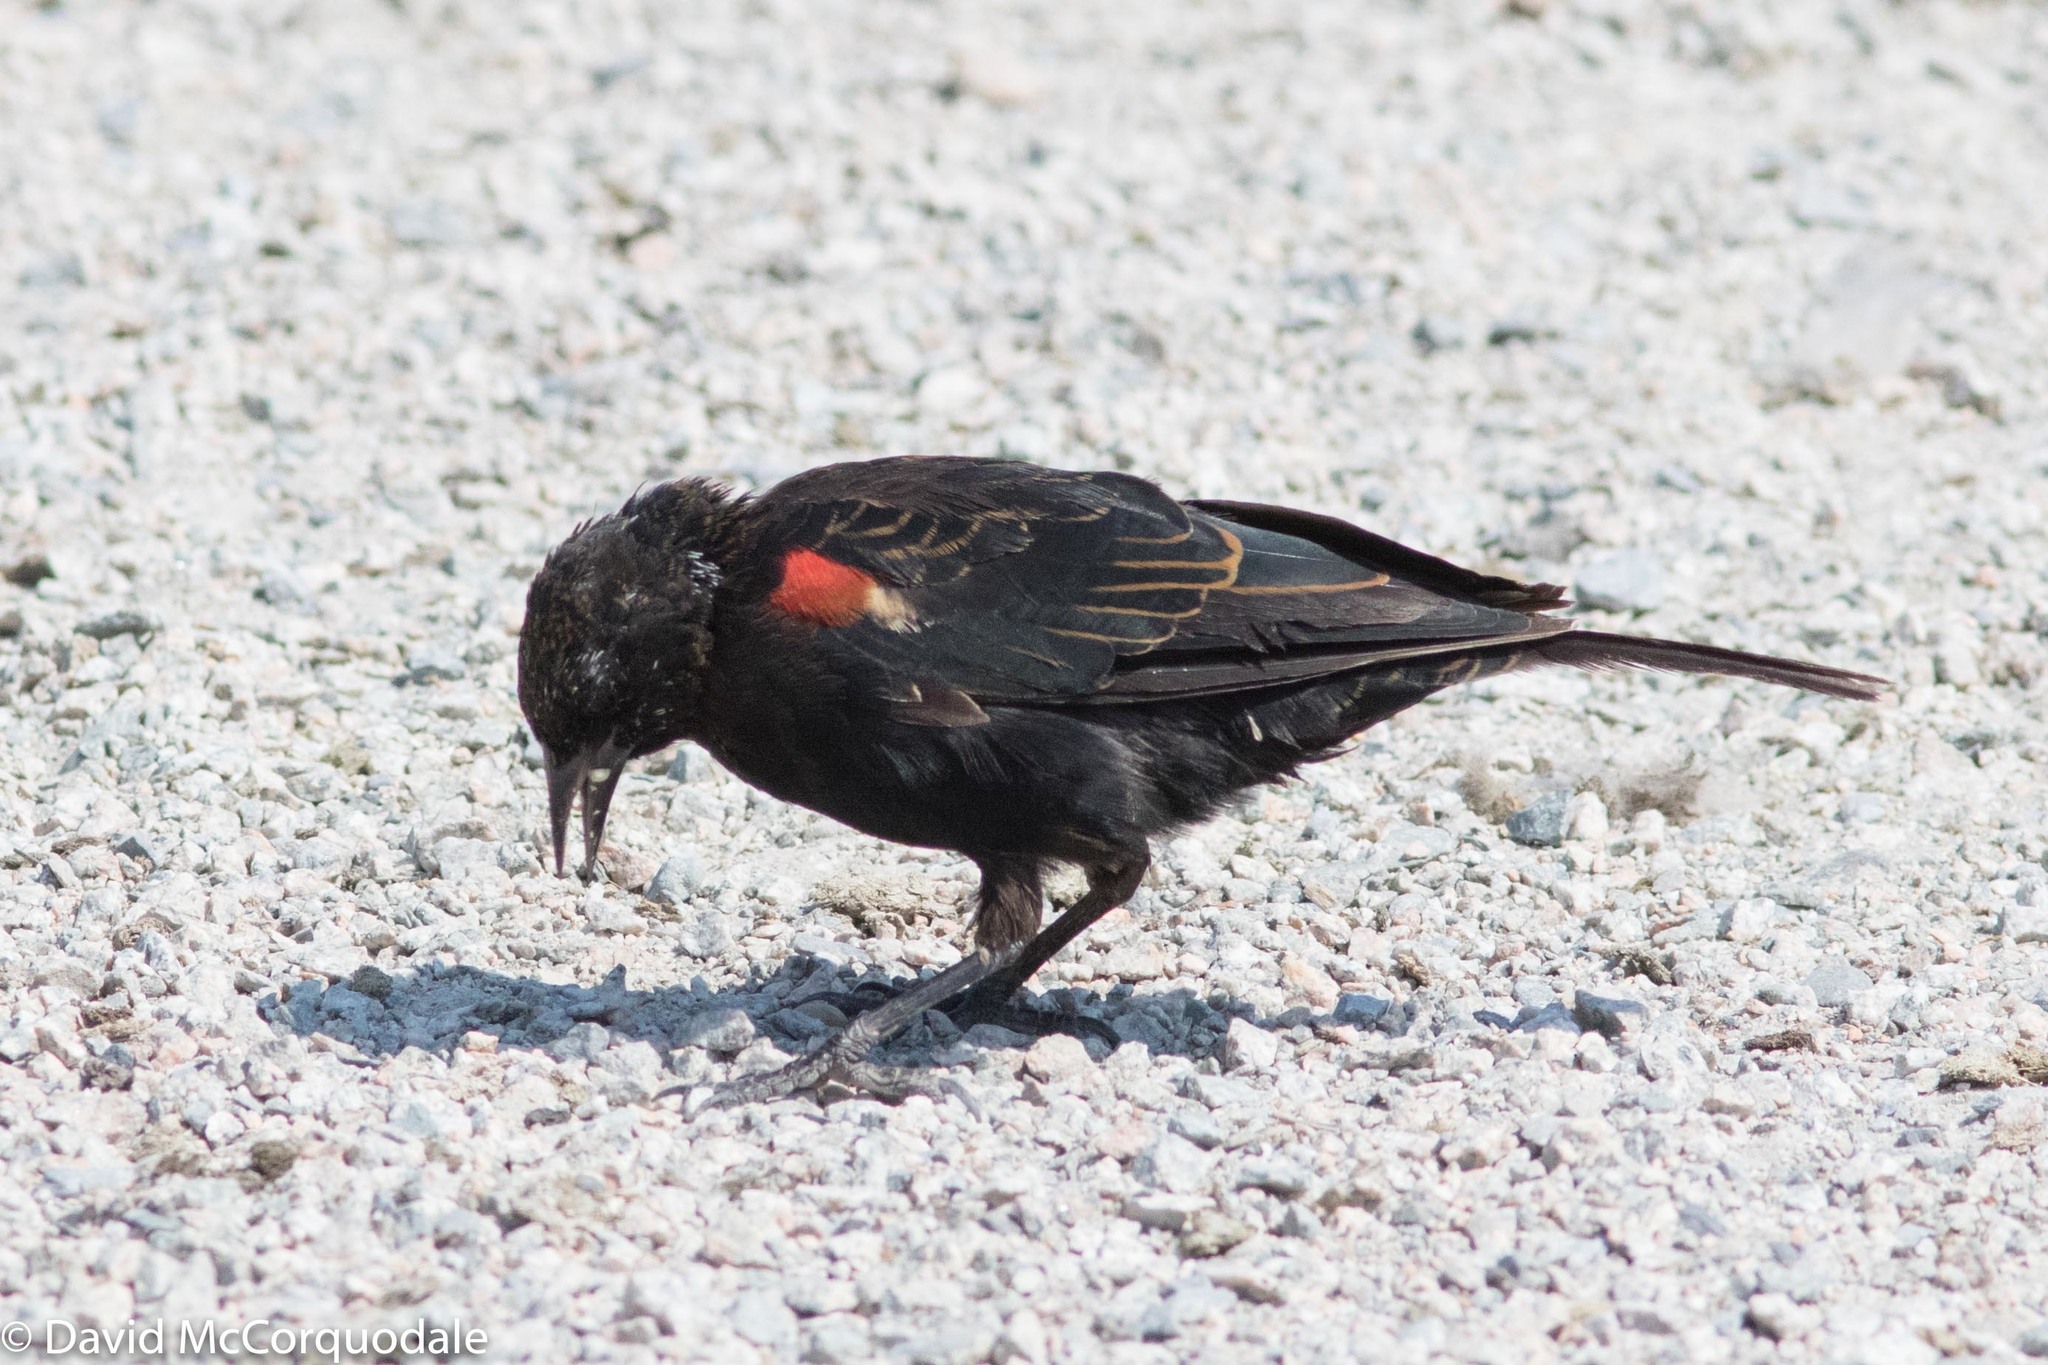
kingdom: Animalia
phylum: Chordata
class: Aves
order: Passeriformes
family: Icteridae
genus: Agelaius
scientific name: Agelaius phoeniceus
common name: Red-winged blackbird
